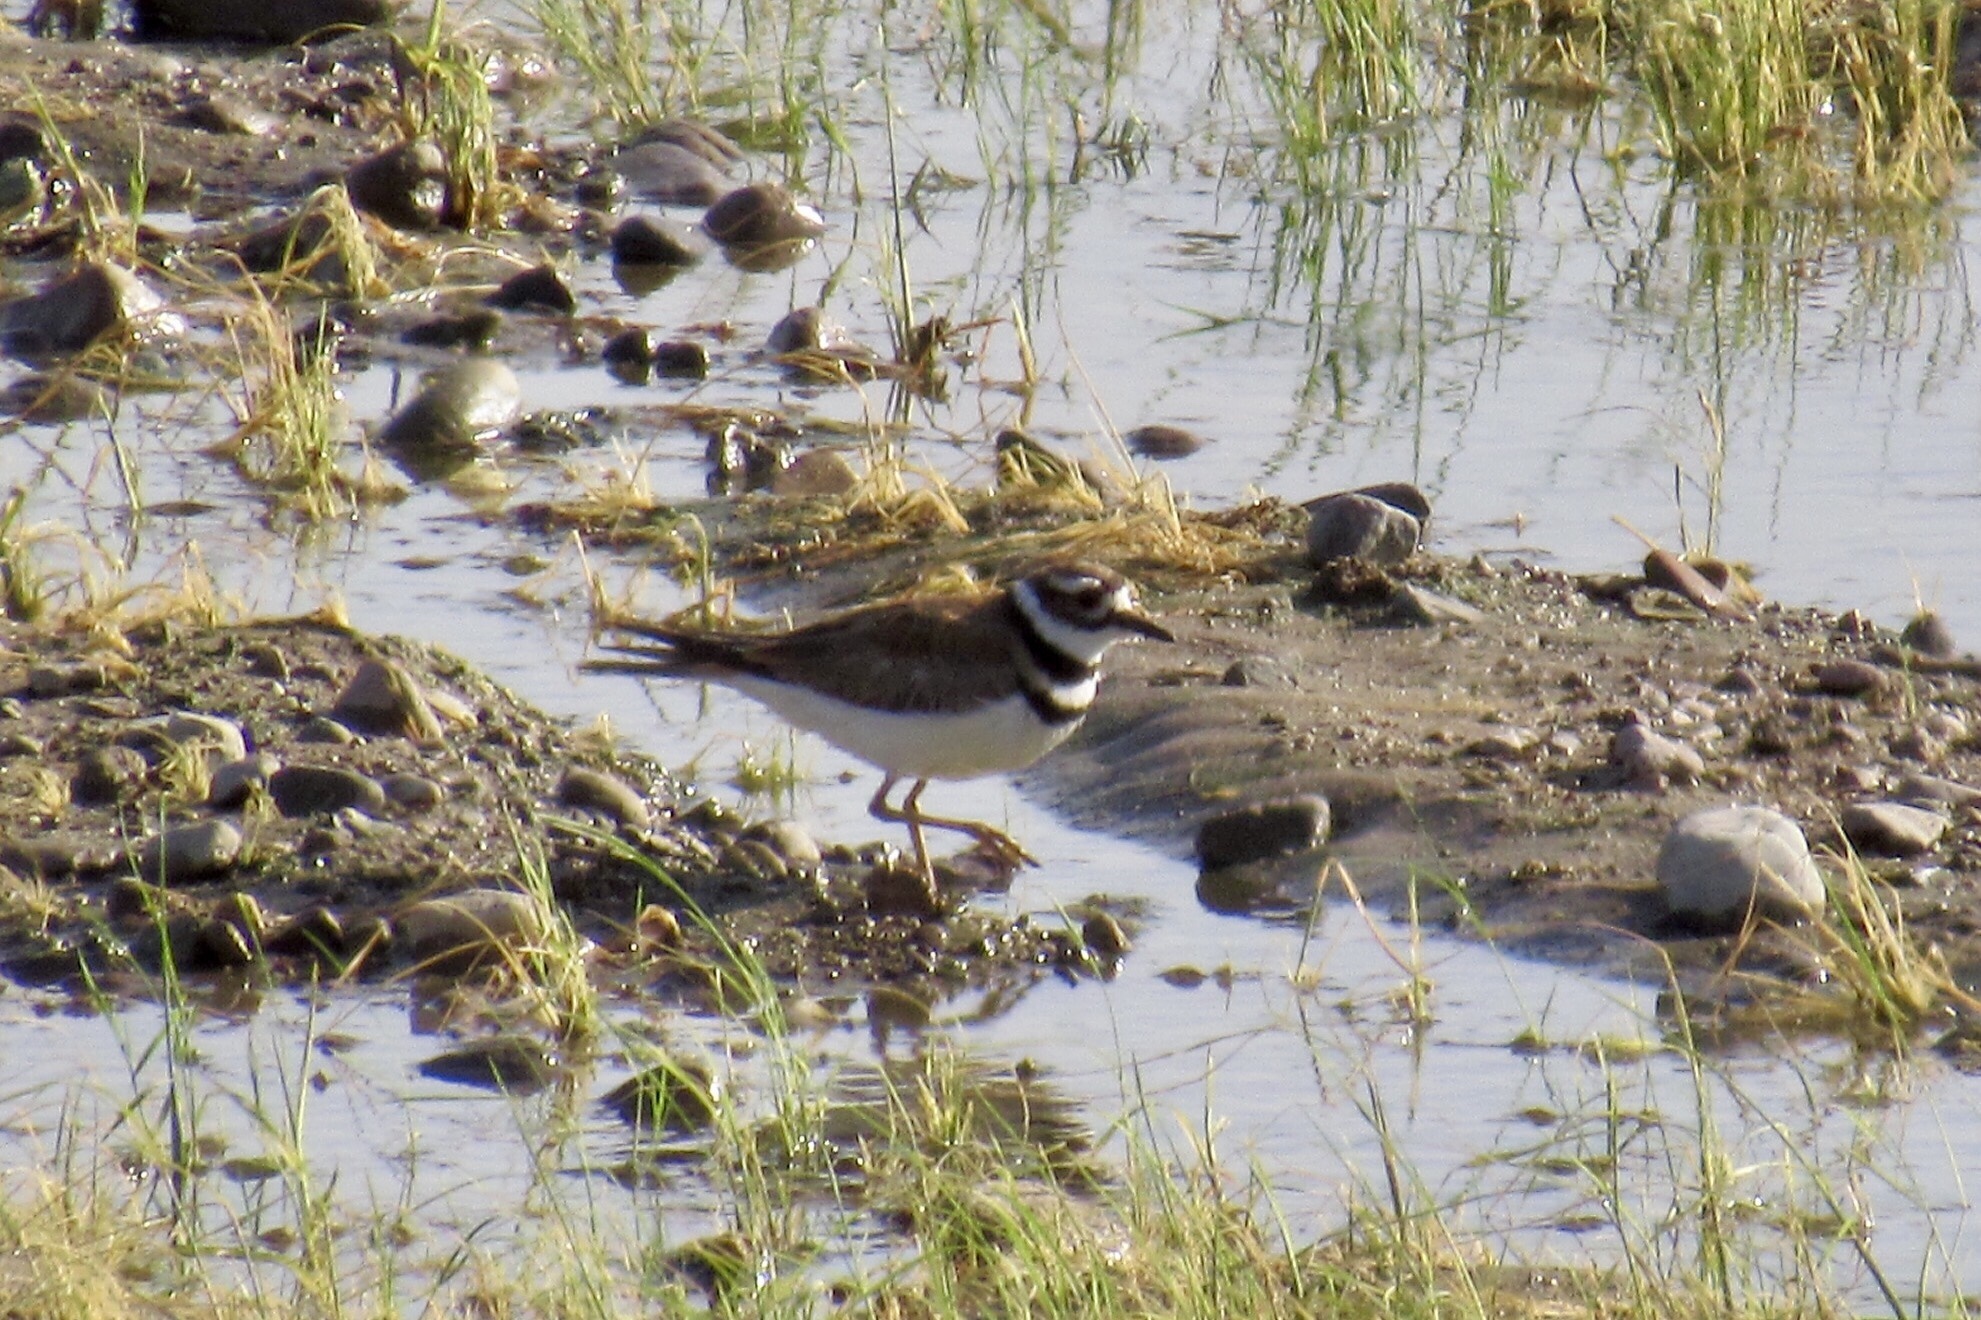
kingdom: Animalia
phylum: Chordata
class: Aves
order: Charadriiformes
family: Charadriidae
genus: Charadrius
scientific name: Charadrius vociferus
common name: Killdeer
